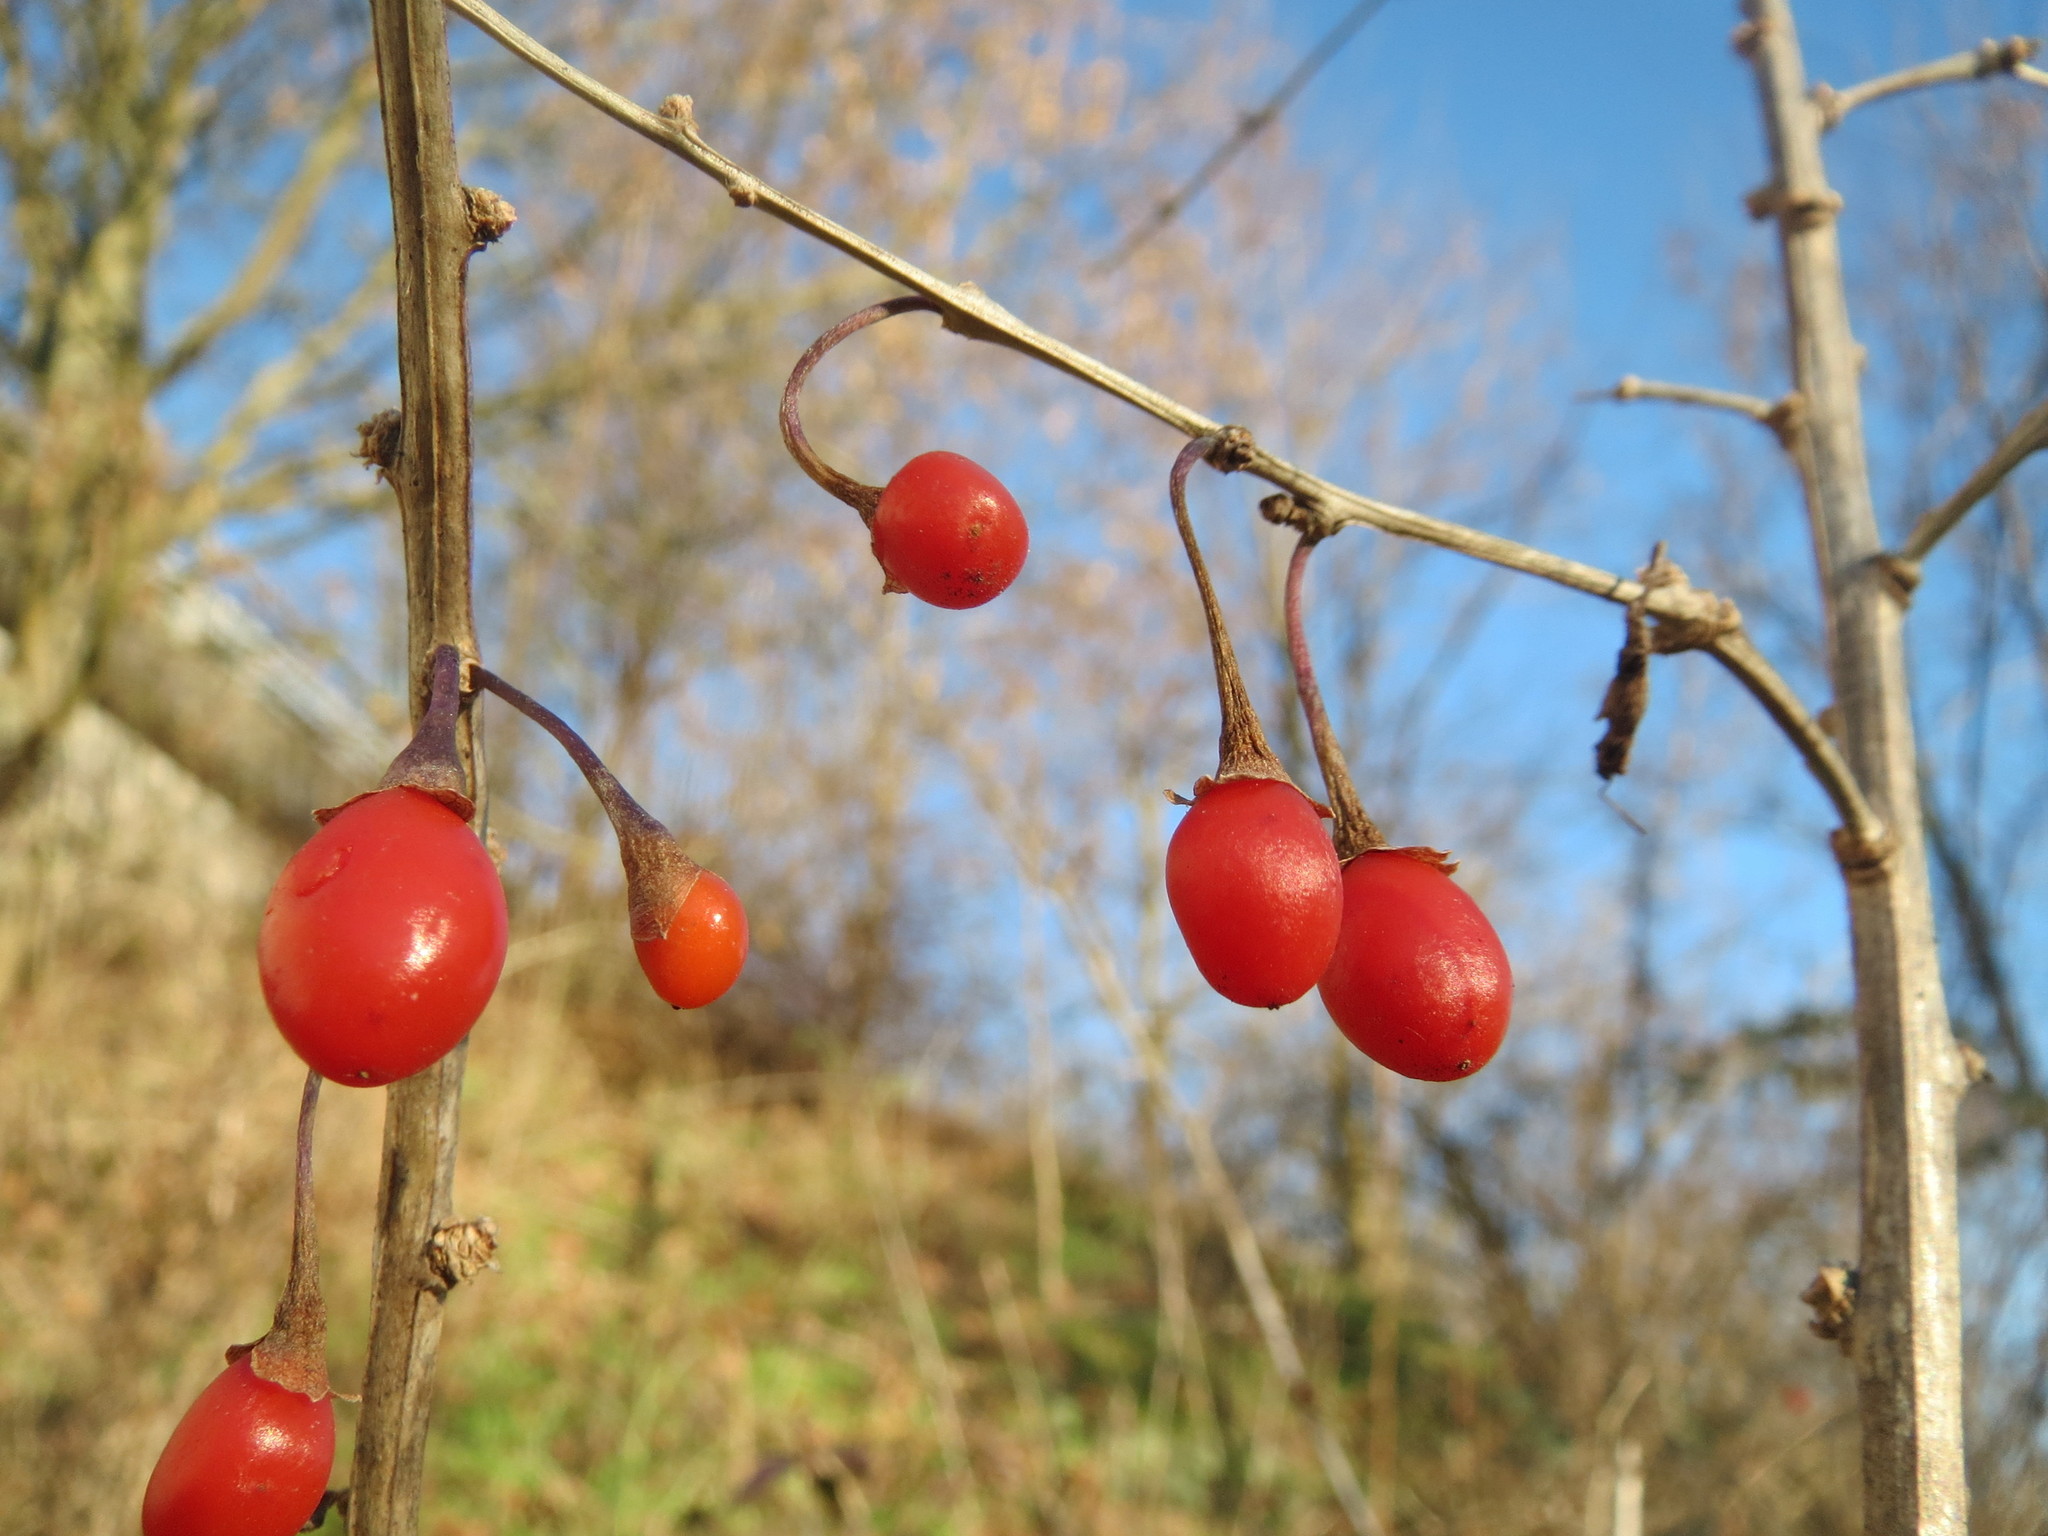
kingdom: Plantae
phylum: Tracheophyta
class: Magnoliopsida
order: Solanales
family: Solanaceae
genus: Lycium
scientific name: Lycium barbarum
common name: Duke of argyll's teaplant
